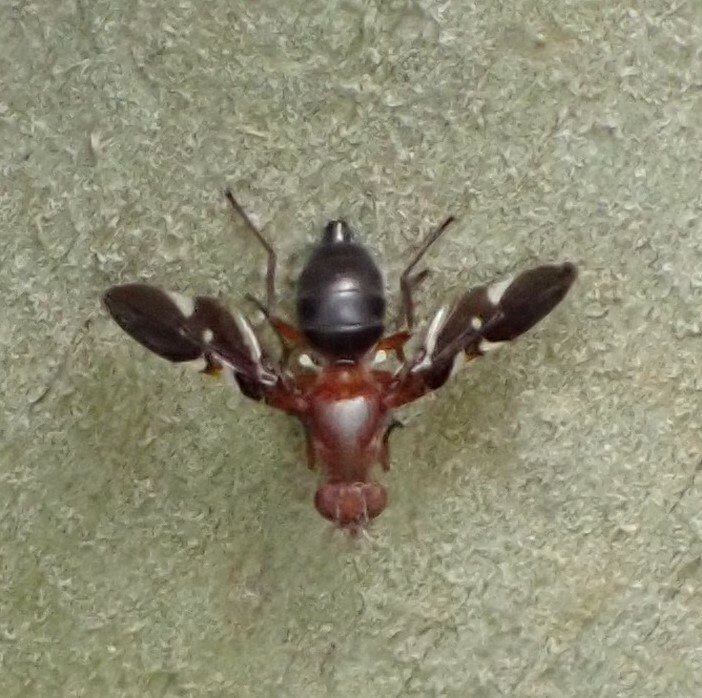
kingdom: Animalia
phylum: Arthropoda
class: Insecta
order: Diptera
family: Ulidiidae
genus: Delphinia
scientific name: Delphinia picta
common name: Common picture-winged fly
